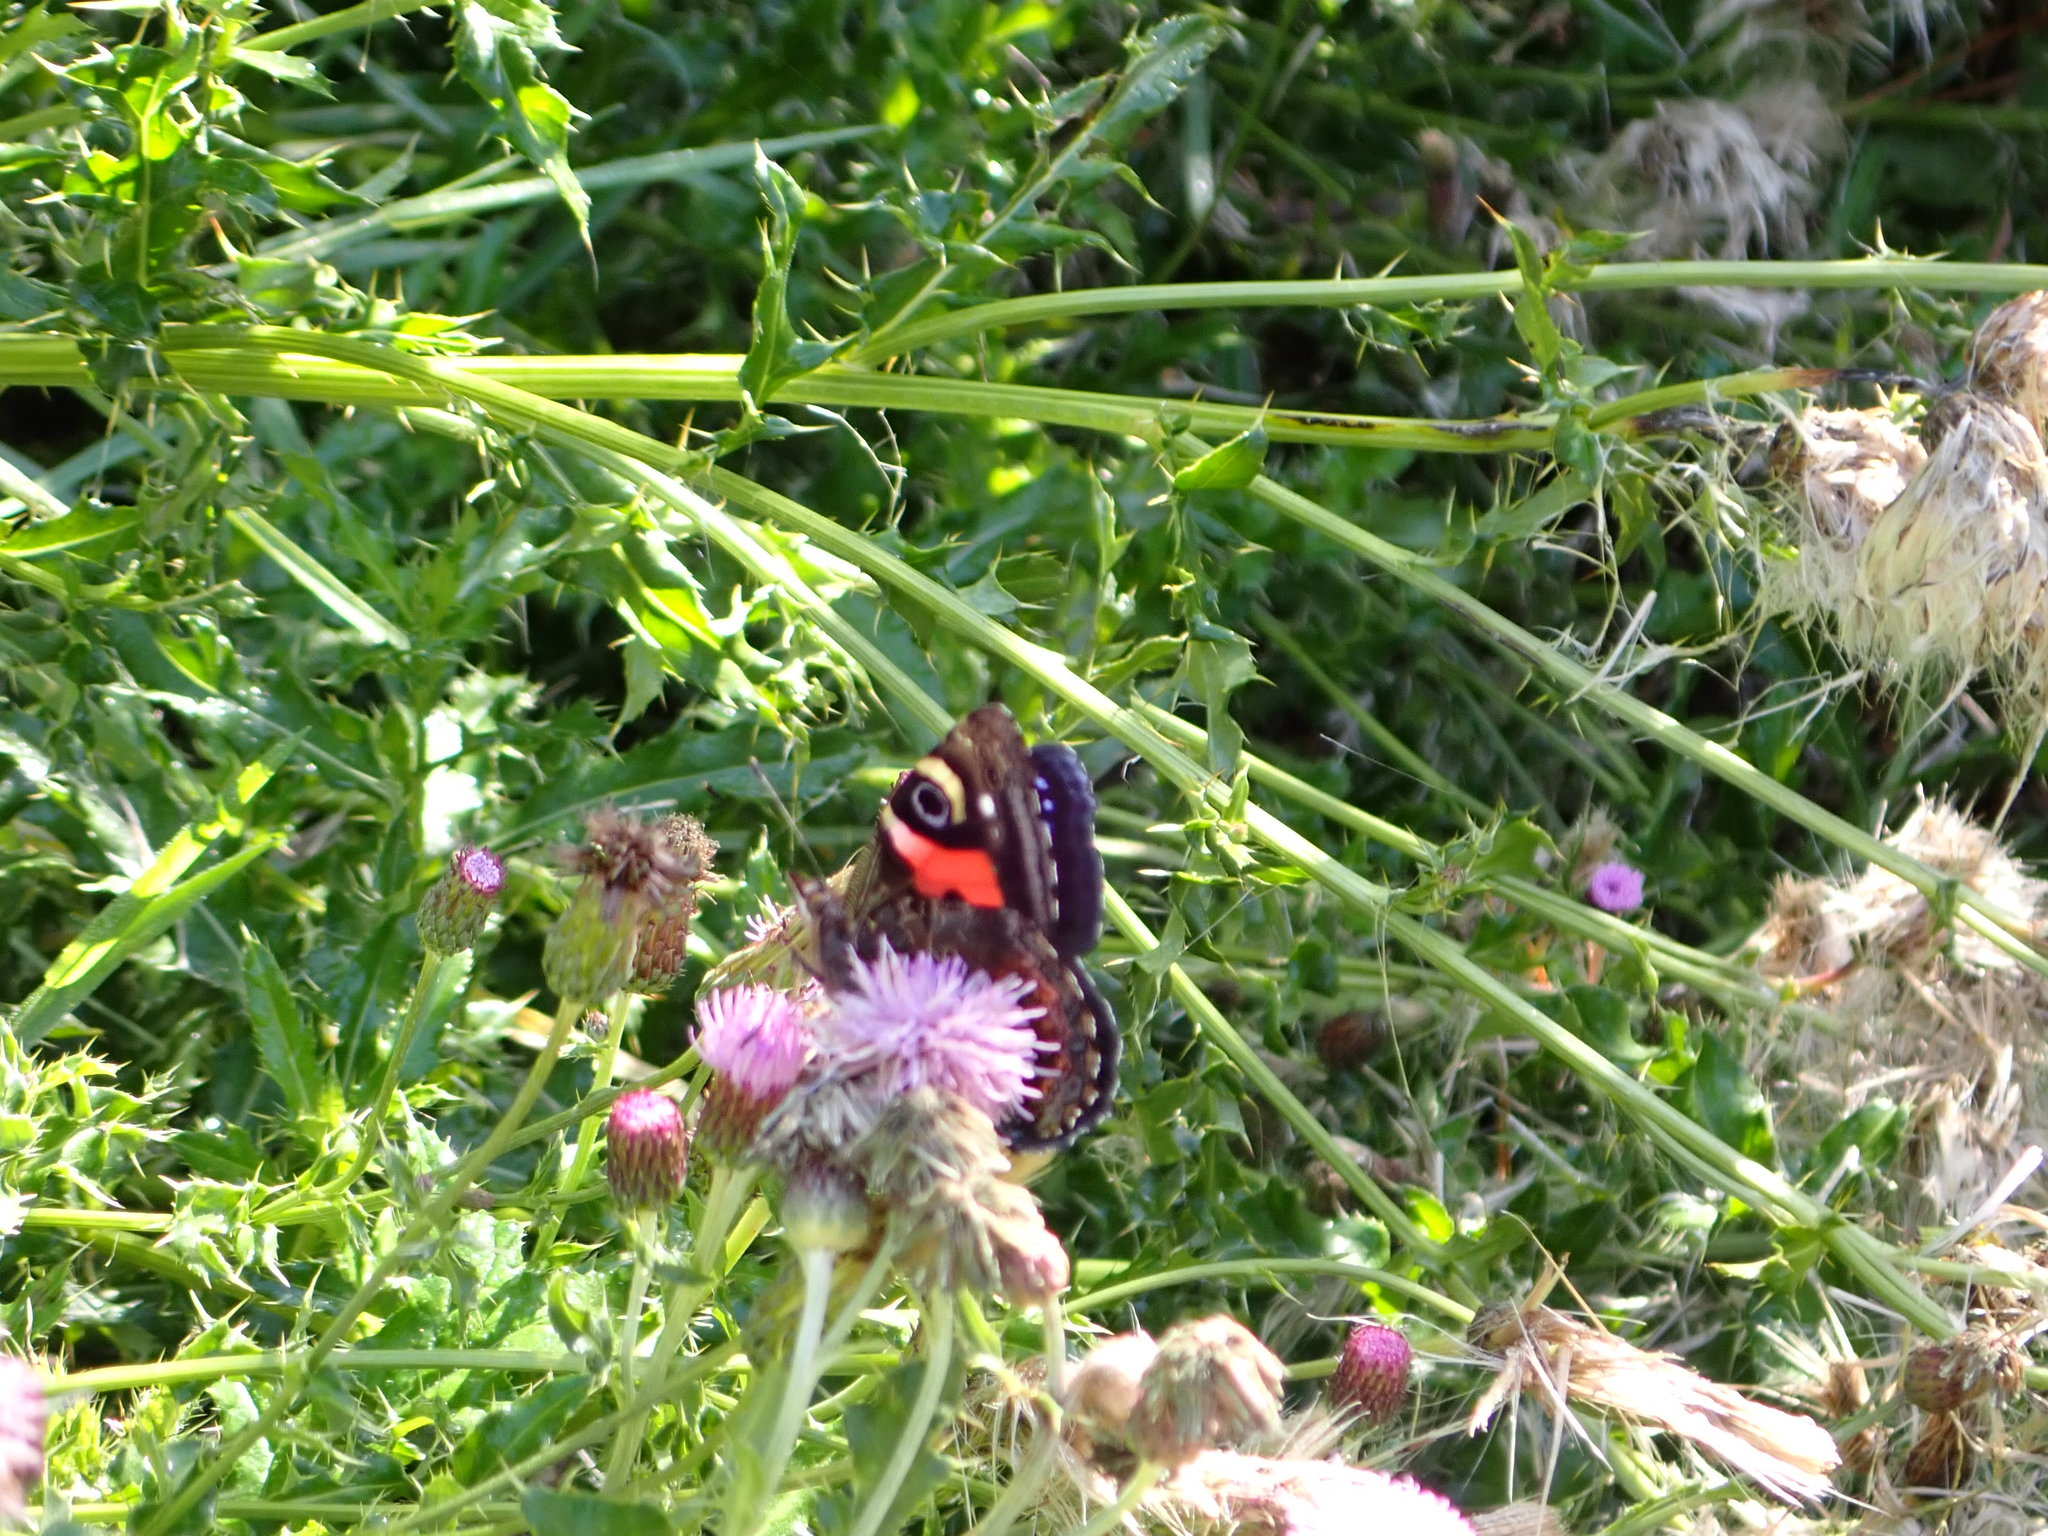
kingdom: Animalia
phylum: Arthropoda
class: Insecta
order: Lepidoptera
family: Nymphalidae
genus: Vanessa
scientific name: Vanessa gonerilla
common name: New zealand red admiral
